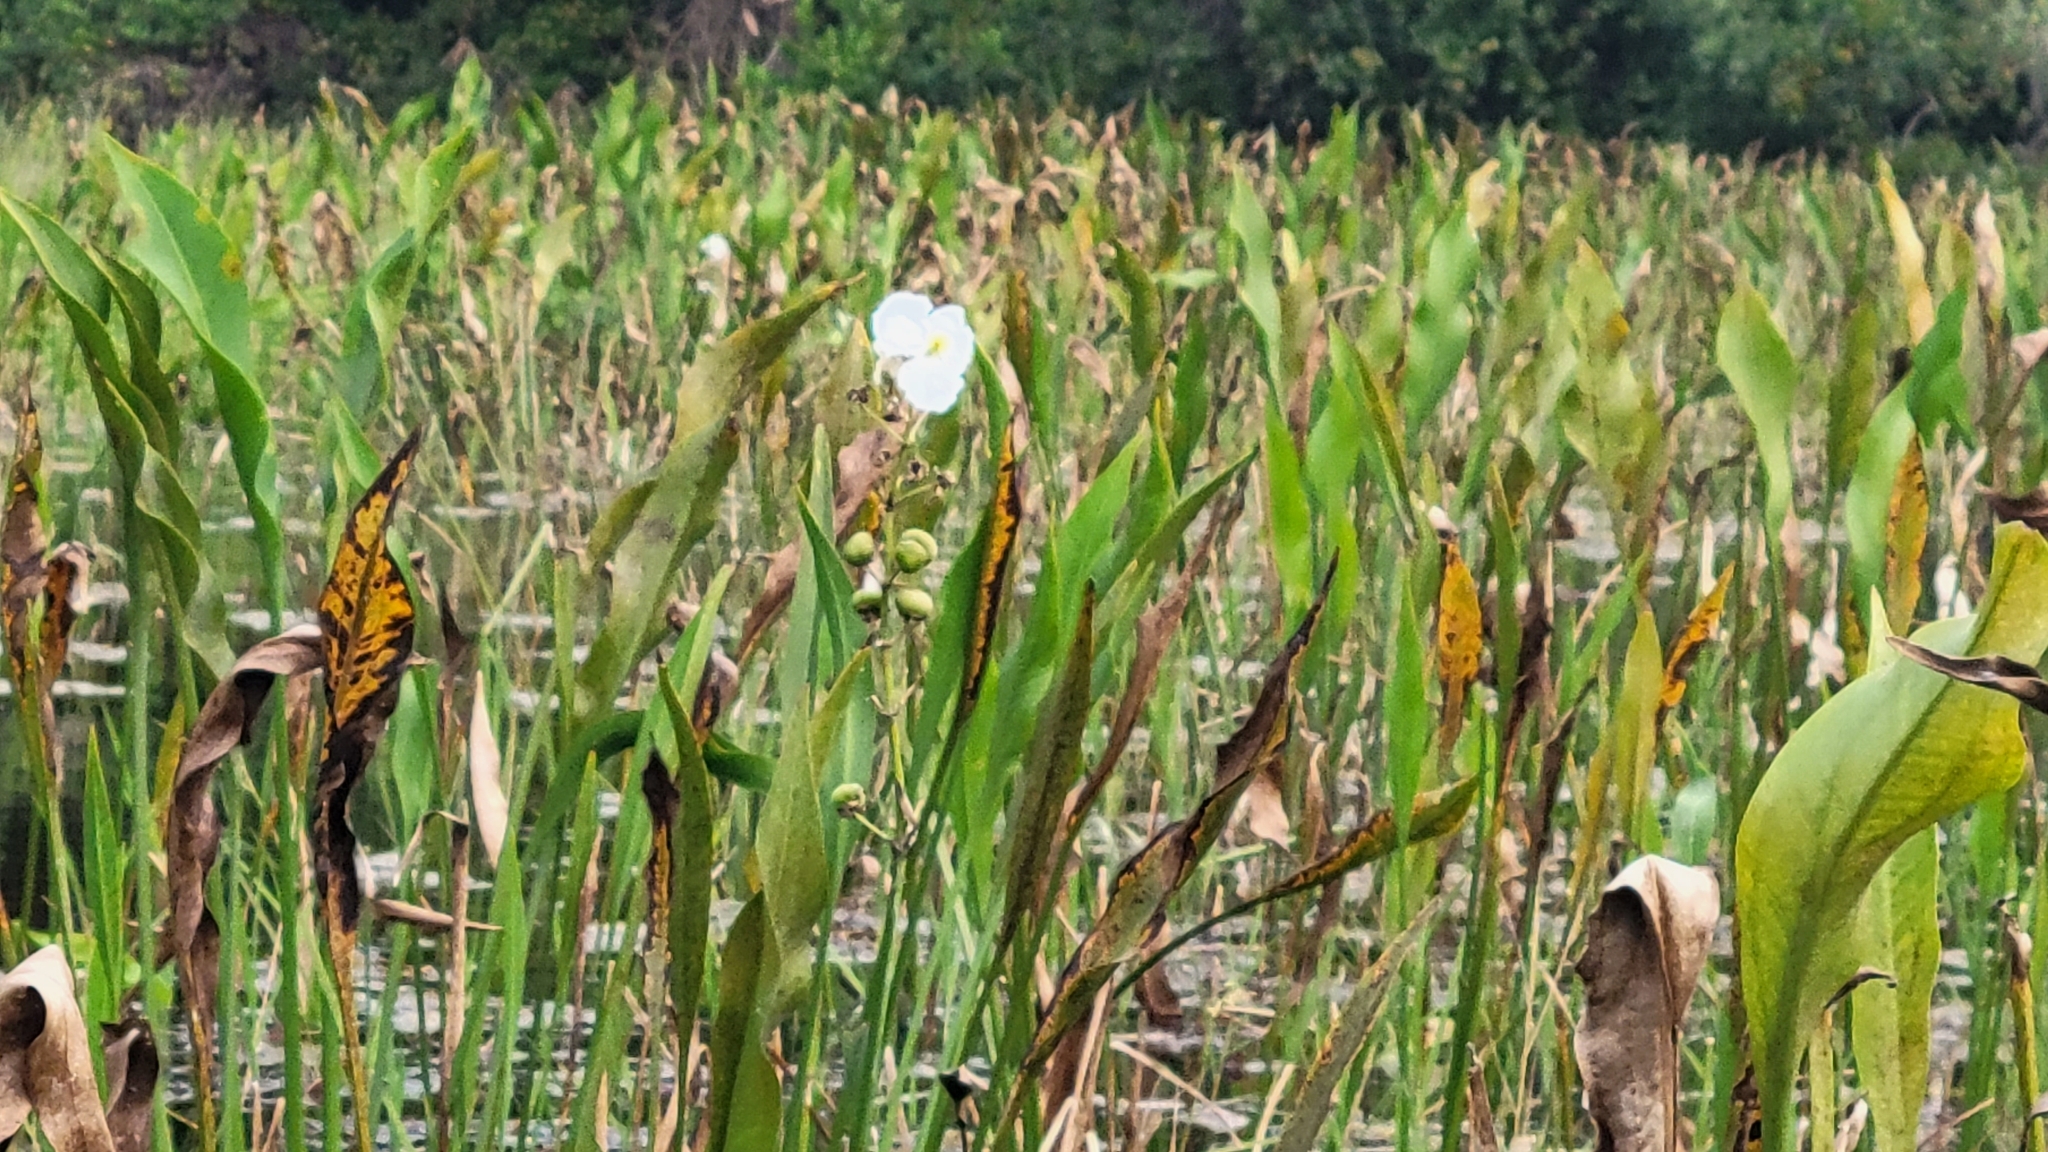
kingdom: Plantae
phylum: Tracheophyta
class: Liliopsida
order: Alismatales
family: Alismataceae
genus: Sagittaria
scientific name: Sagittaria lancifolia
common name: Lance-leaf arrowhead
